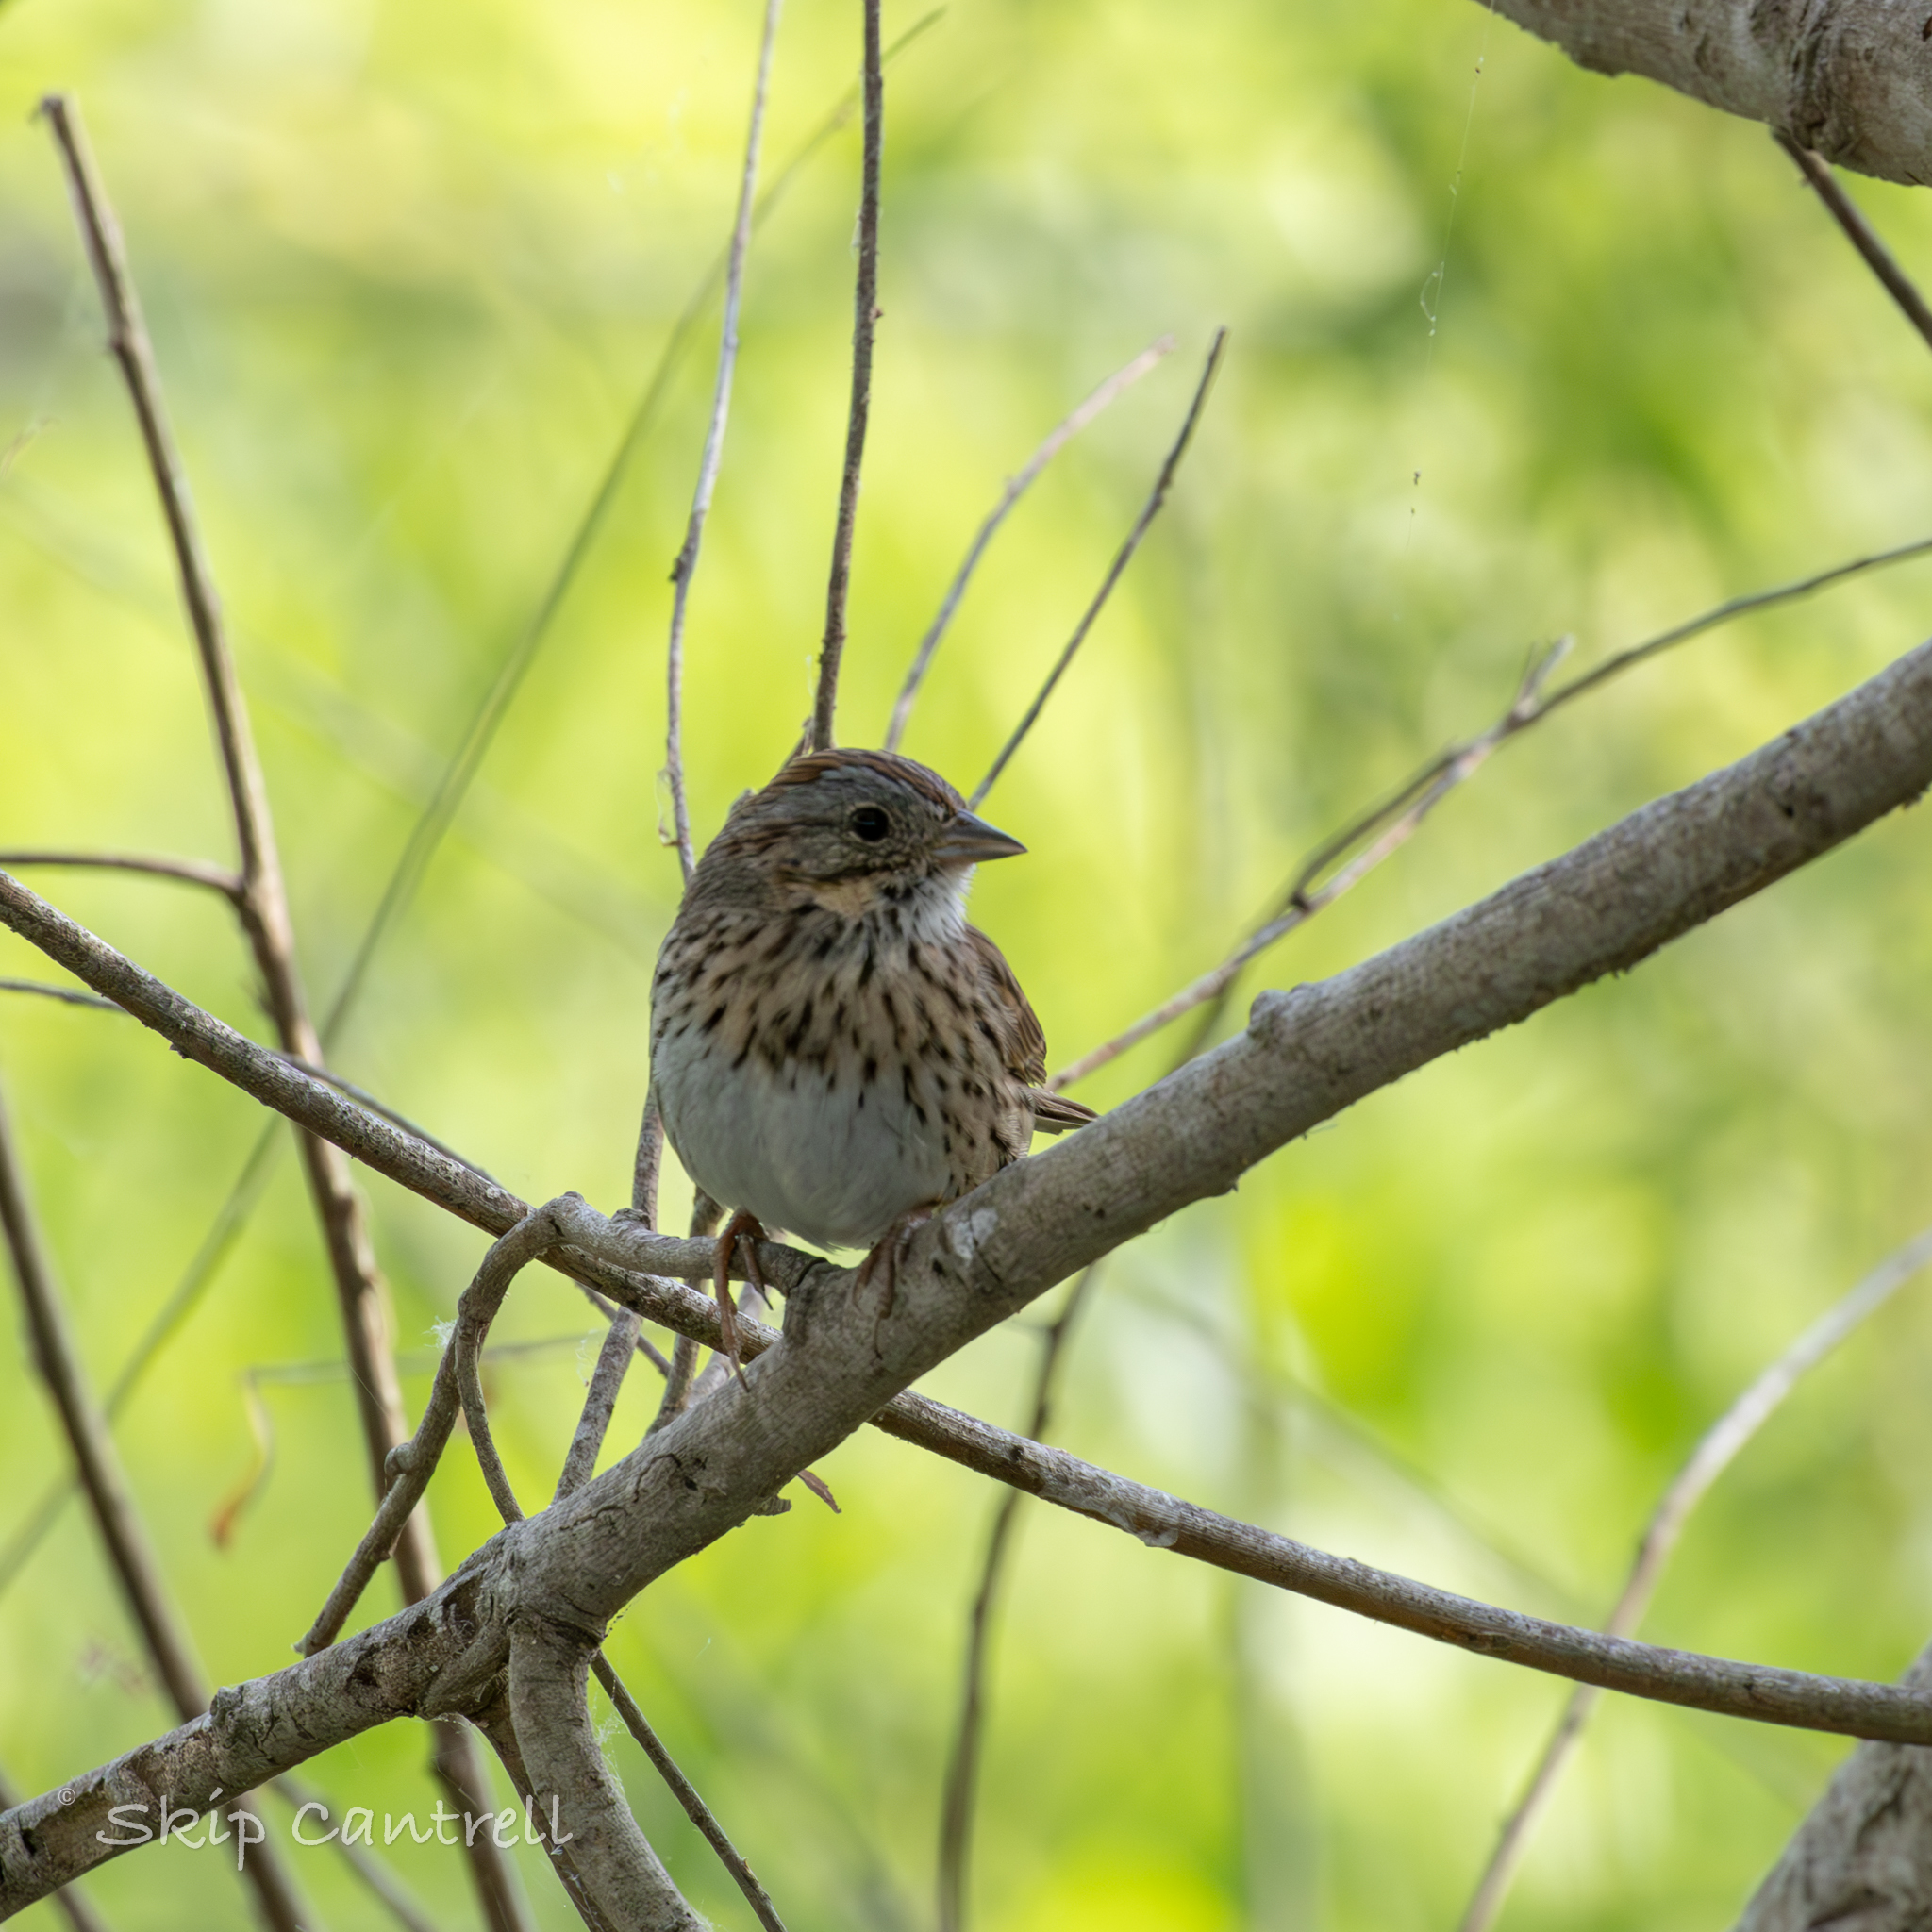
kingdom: Animalia
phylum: Chordata
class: Aves
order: Passeriformes
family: Passerellidae
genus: Melospiza
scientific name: Melospiza lincolnii
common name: Lincoln's sparrow
